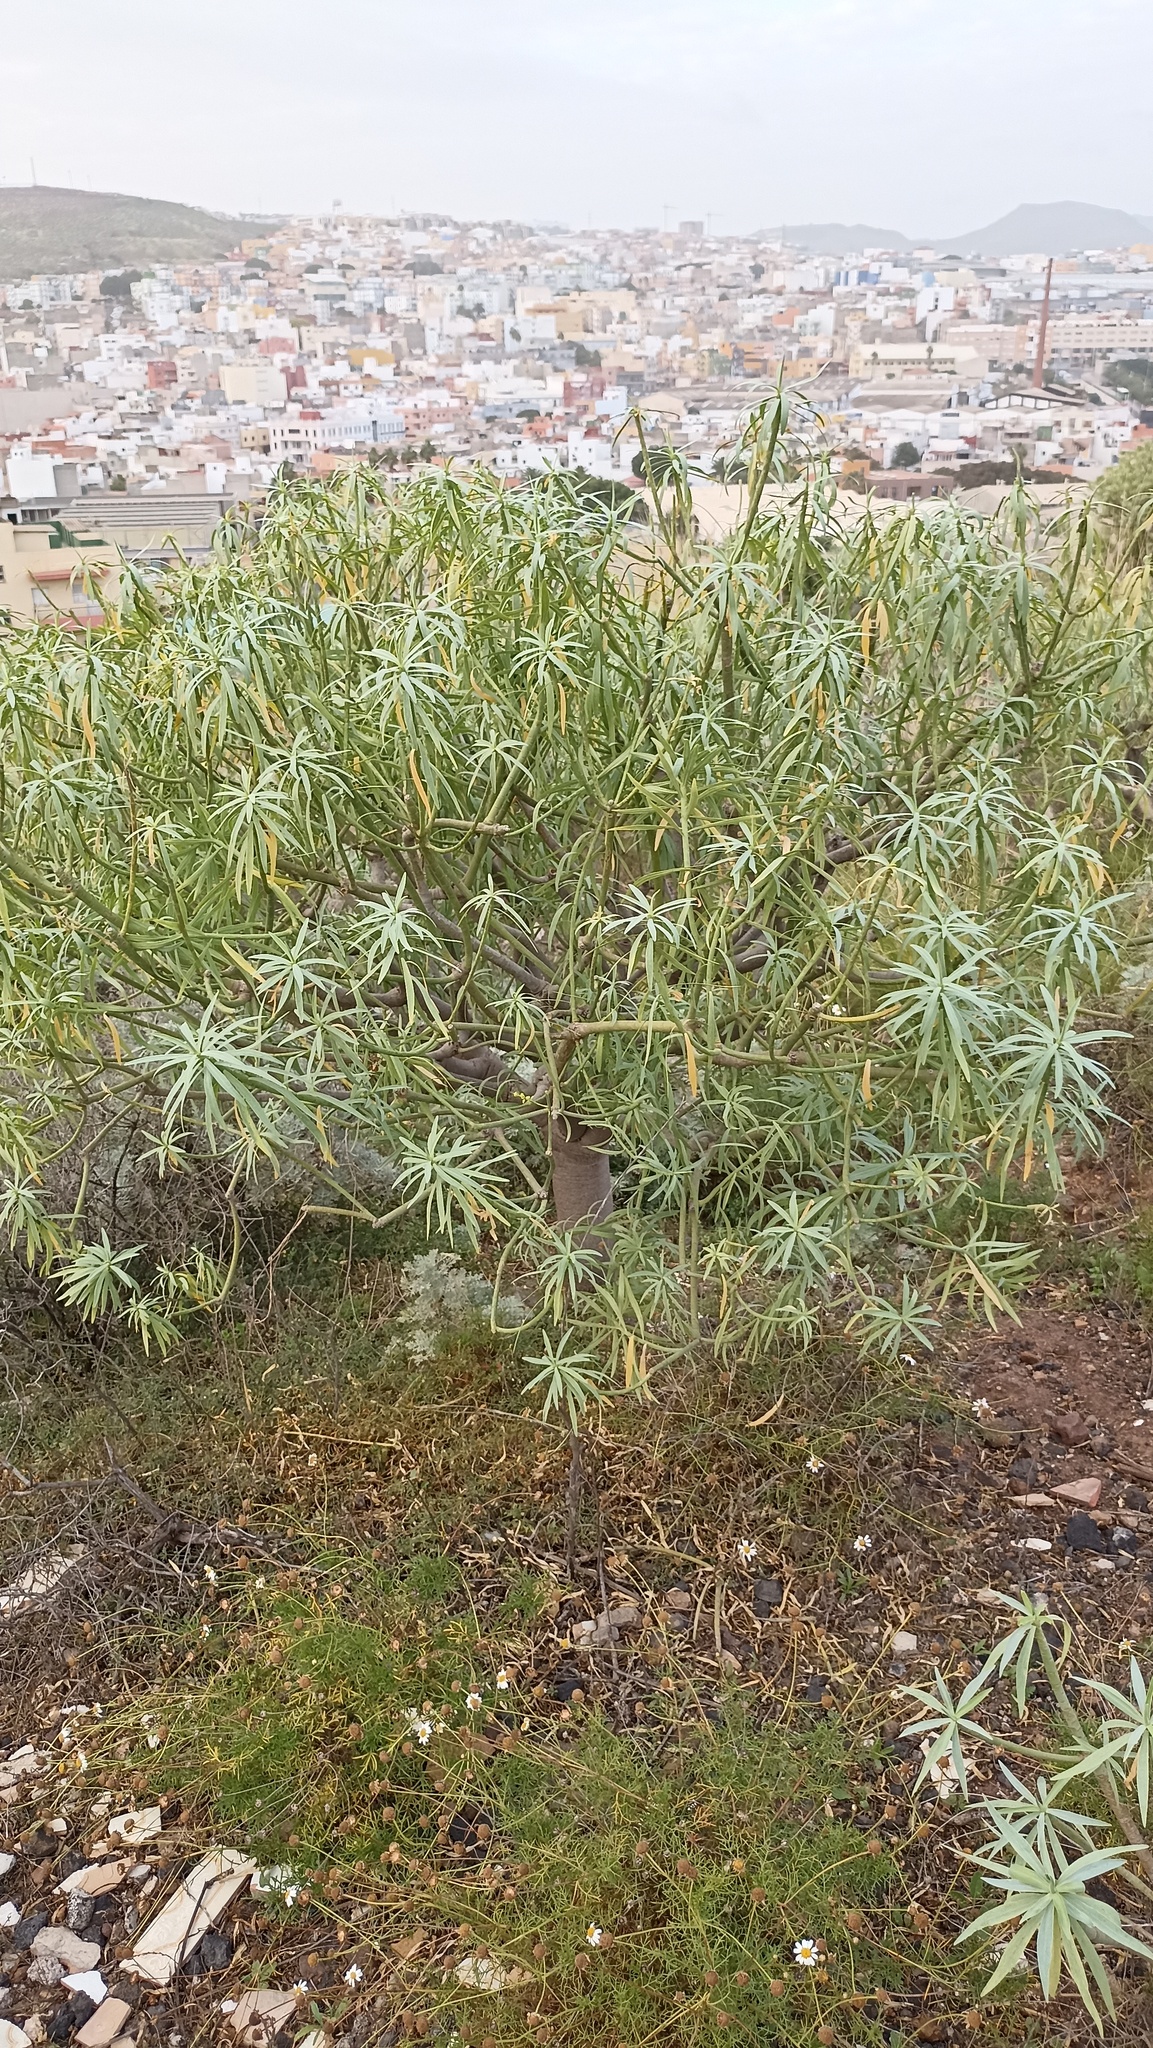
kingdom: Plantae
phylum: Tracheophyta
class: Magnoliopsida
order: Malpighiales
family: Euphorbiaceae
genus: Euphorbia
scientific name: Euphorbia lamarckii
